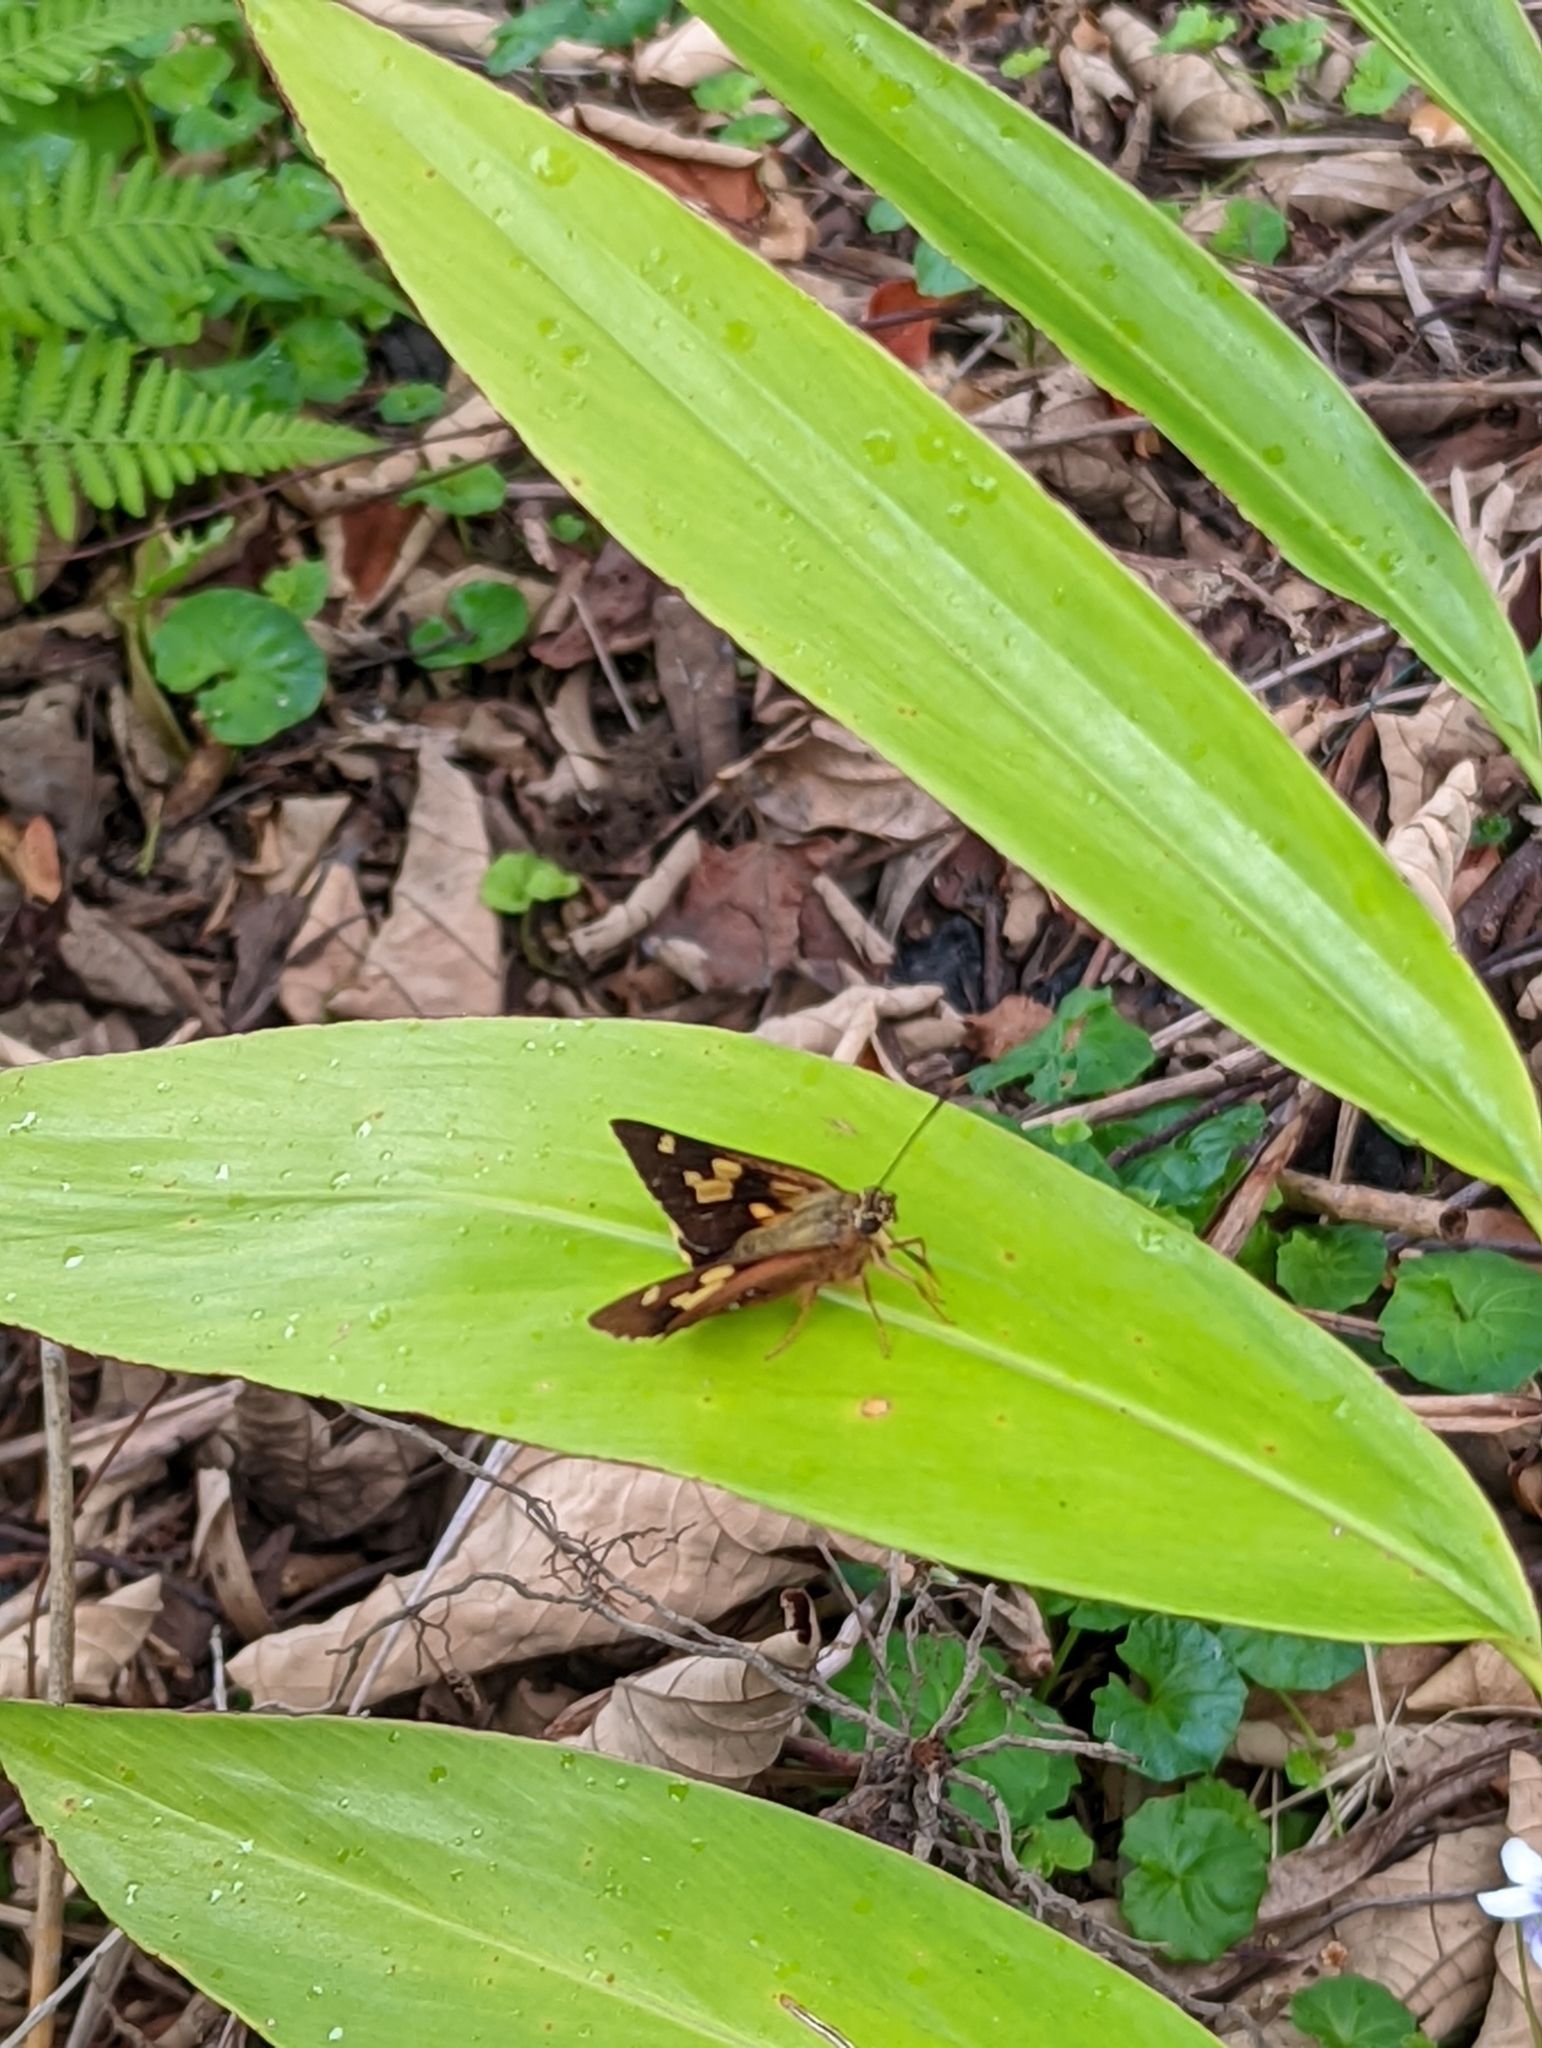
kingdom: Animalia
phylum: Arthropoda
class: Insecta
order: Lepidoptera
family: Hesperiidae
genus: Trapezites
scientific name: Trapezites symmomus
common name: Splendid ochre
